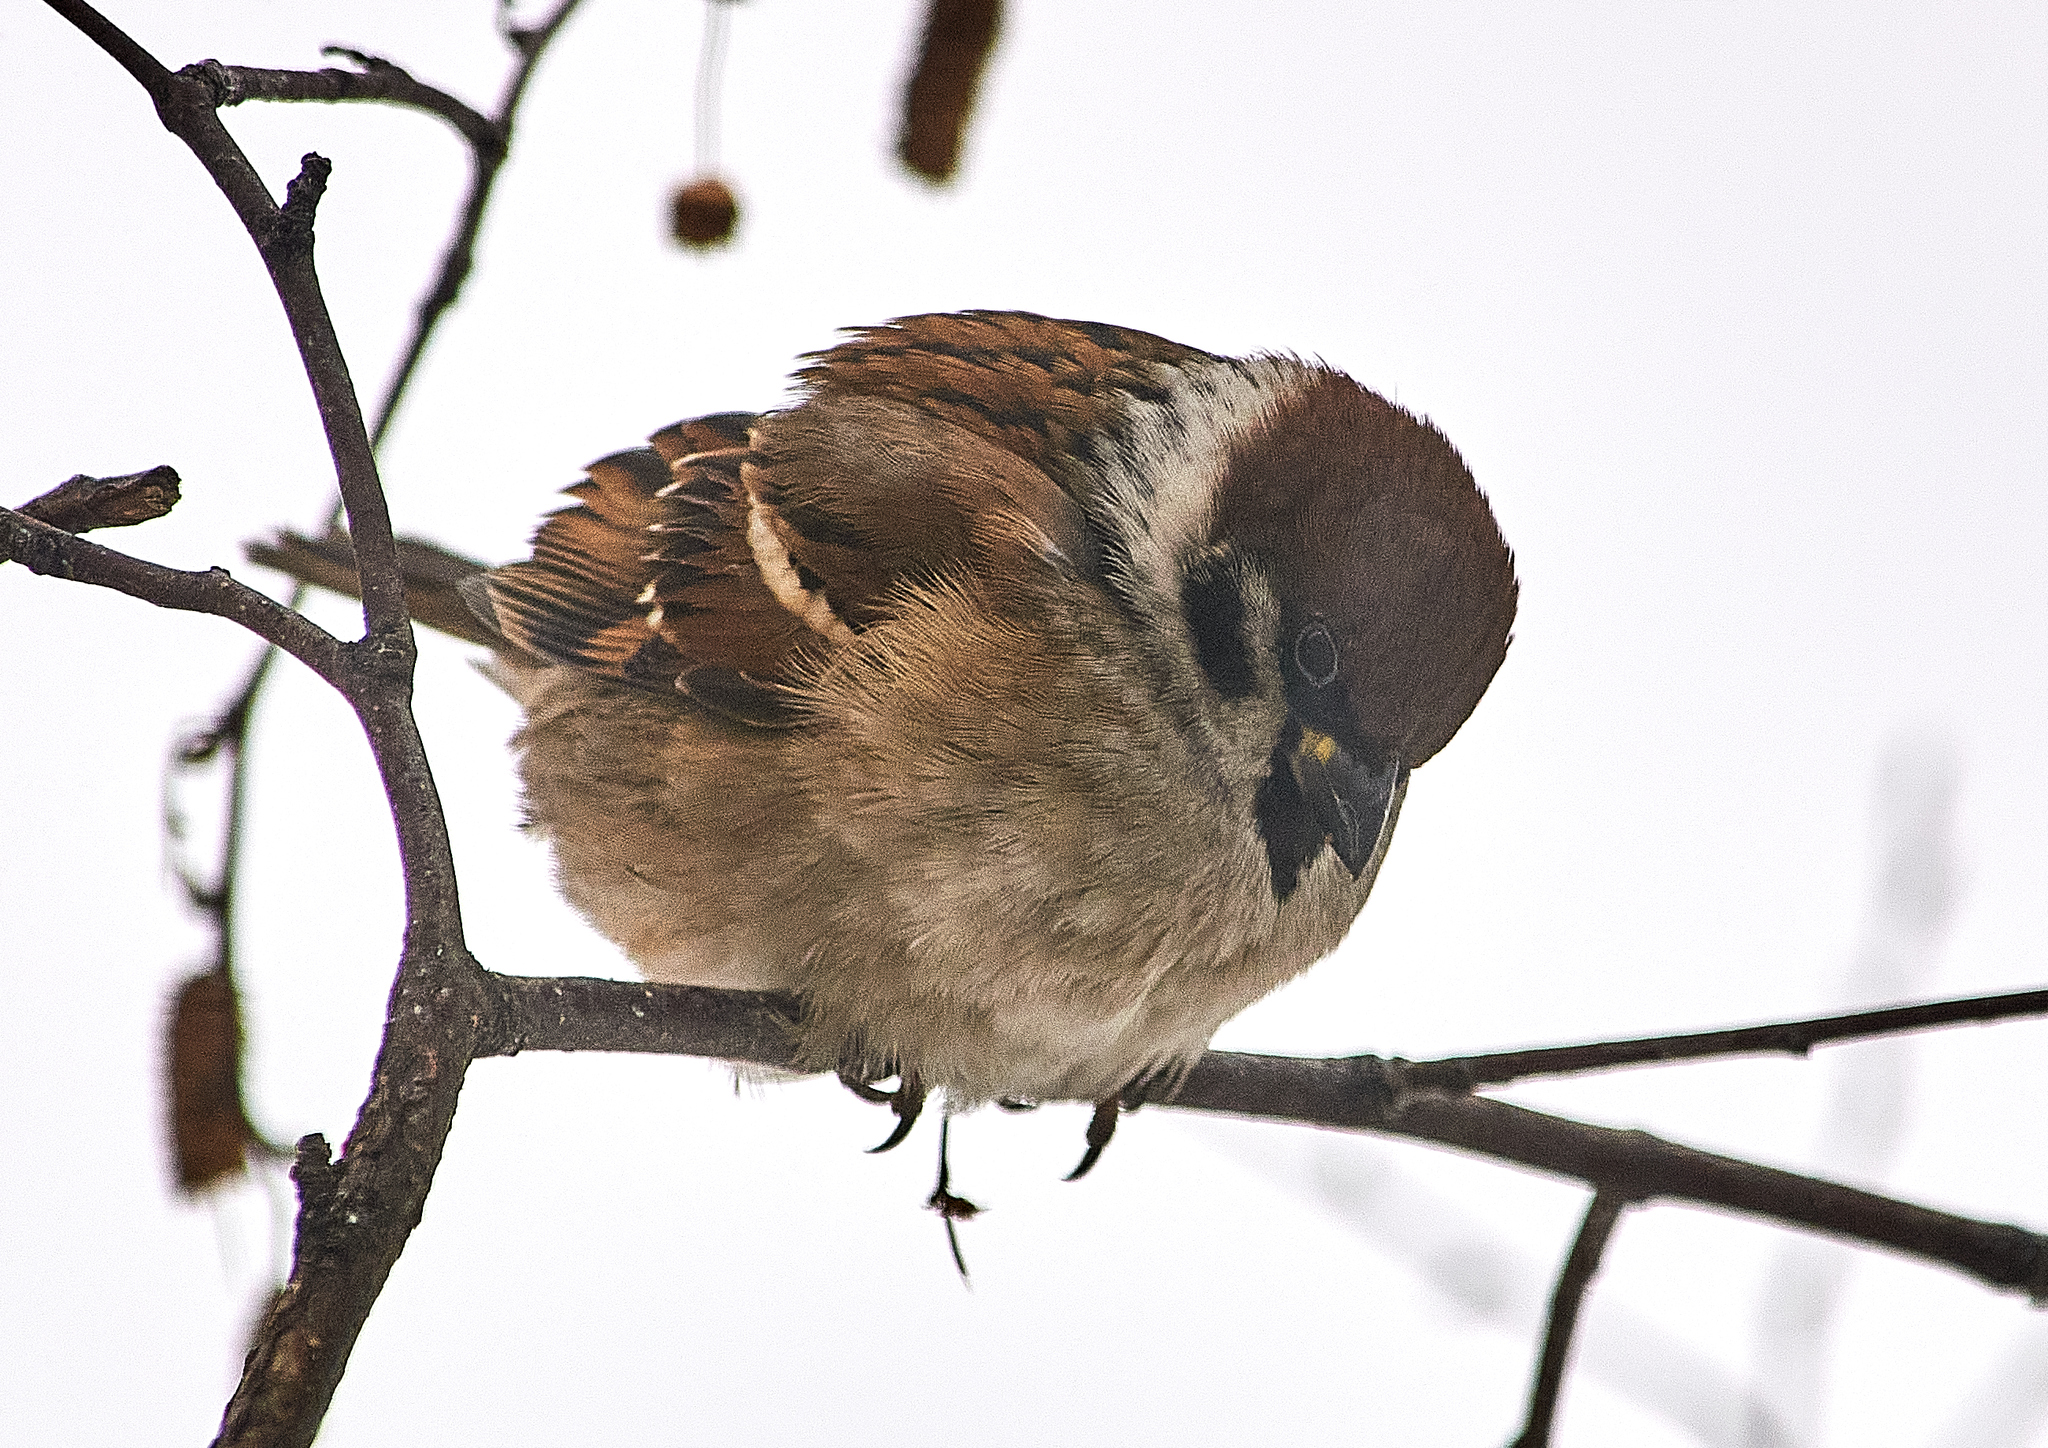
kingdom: Animalia
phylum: Chordata
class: Aves
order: Passeriformes
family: Passeridae
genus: Passer
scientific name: Passer montanus
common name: Eurasian tree sparrow
